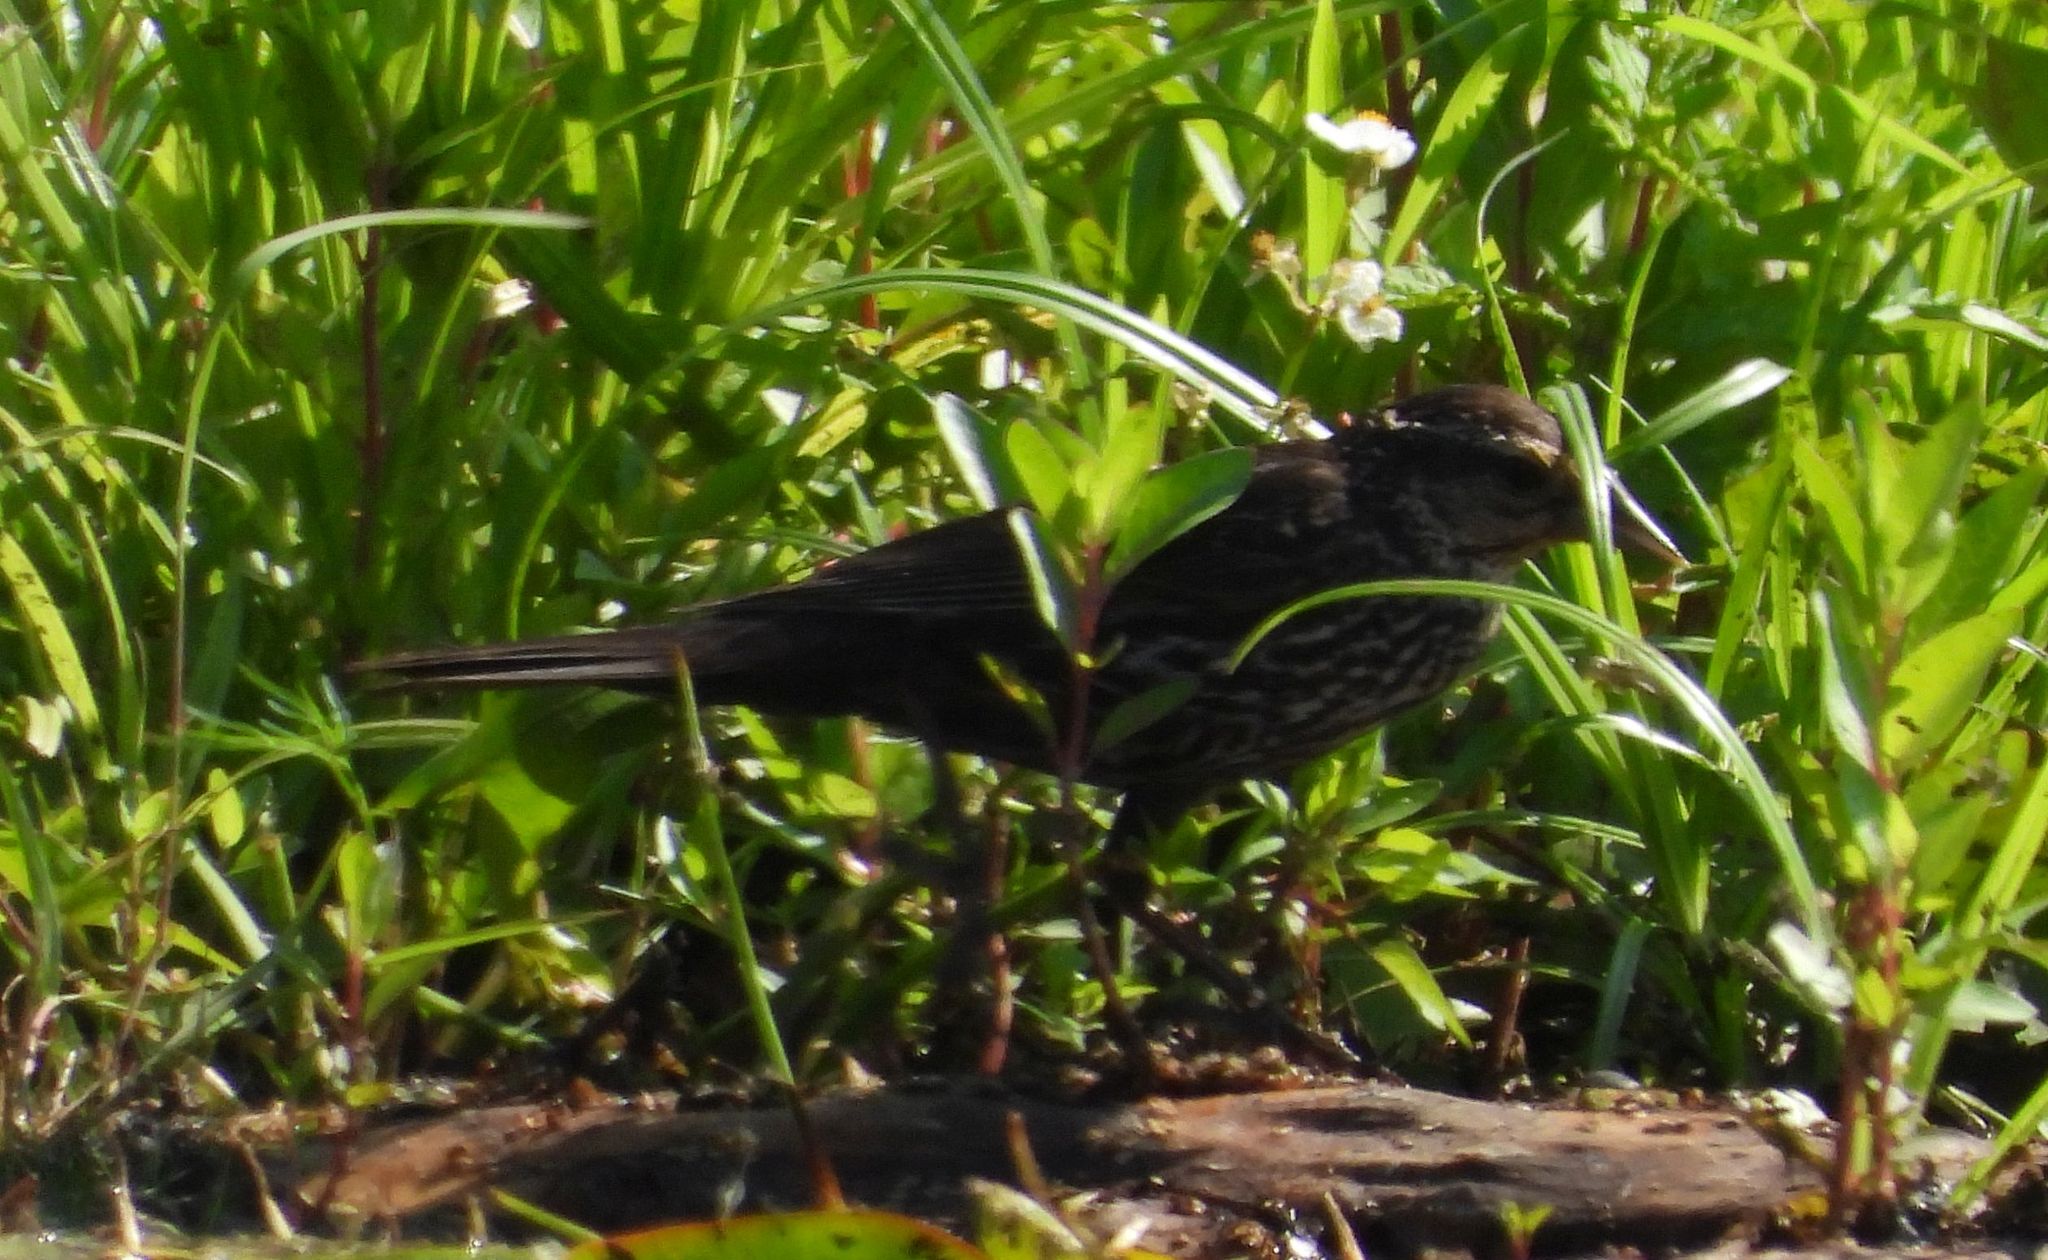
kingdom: Animalia
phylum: Chordata
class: Aves
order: Passeriformes
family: Icteridae
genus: Agelaius
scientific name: Agelaius phoeniceus
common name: Red-winged blackbird
